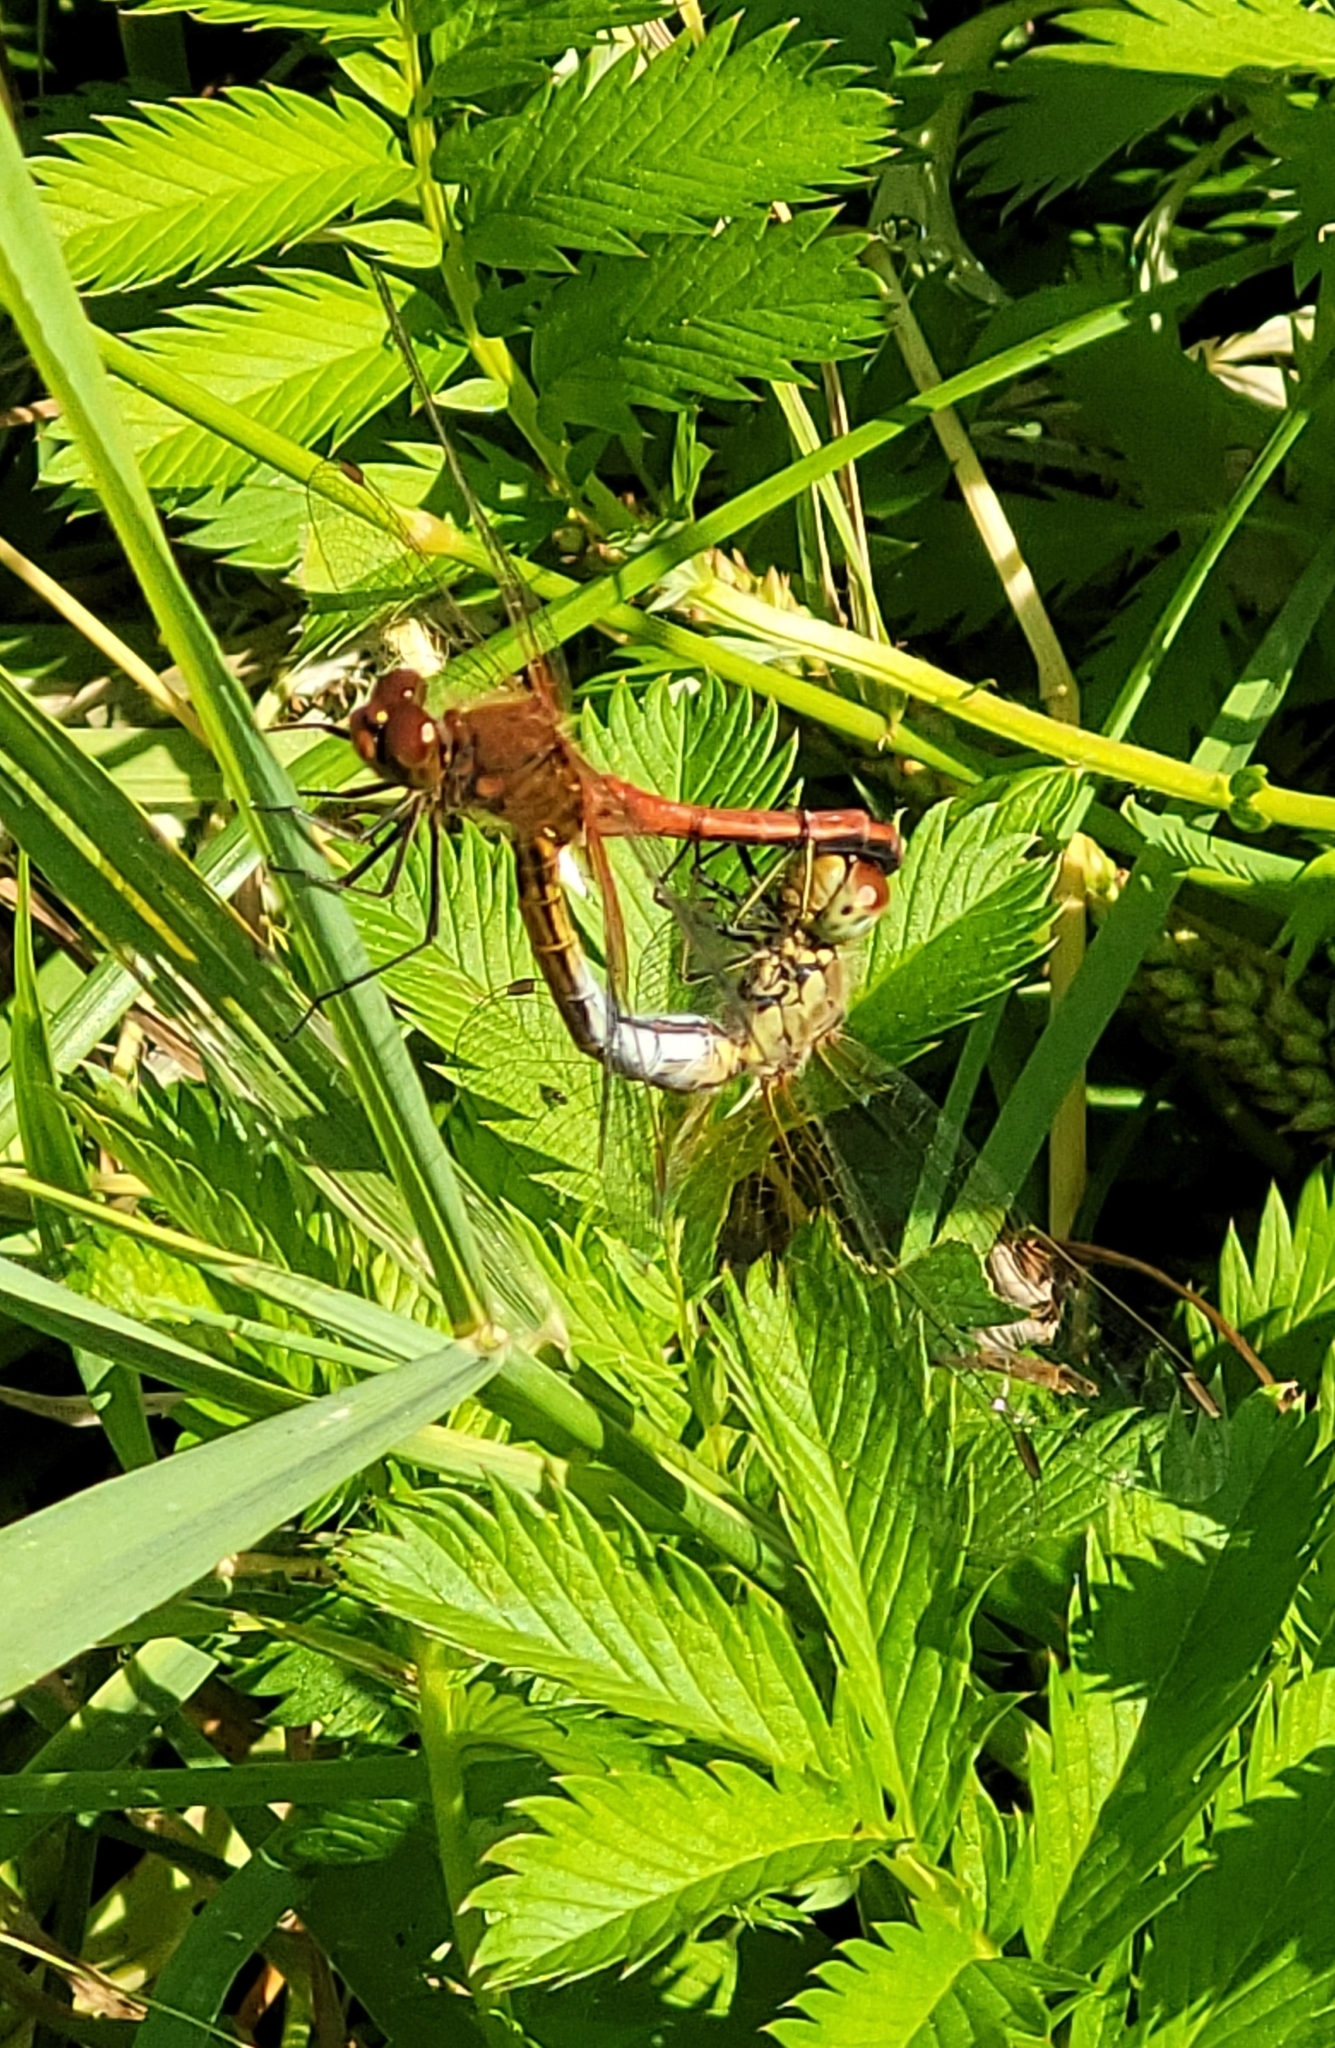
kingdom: Animalia
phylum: Arthropoda
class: Insecta
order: Odonata
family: Libellulidae
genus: Sympetrum
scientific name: Sympetrum flaveolum
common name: Yellow-winged darter
